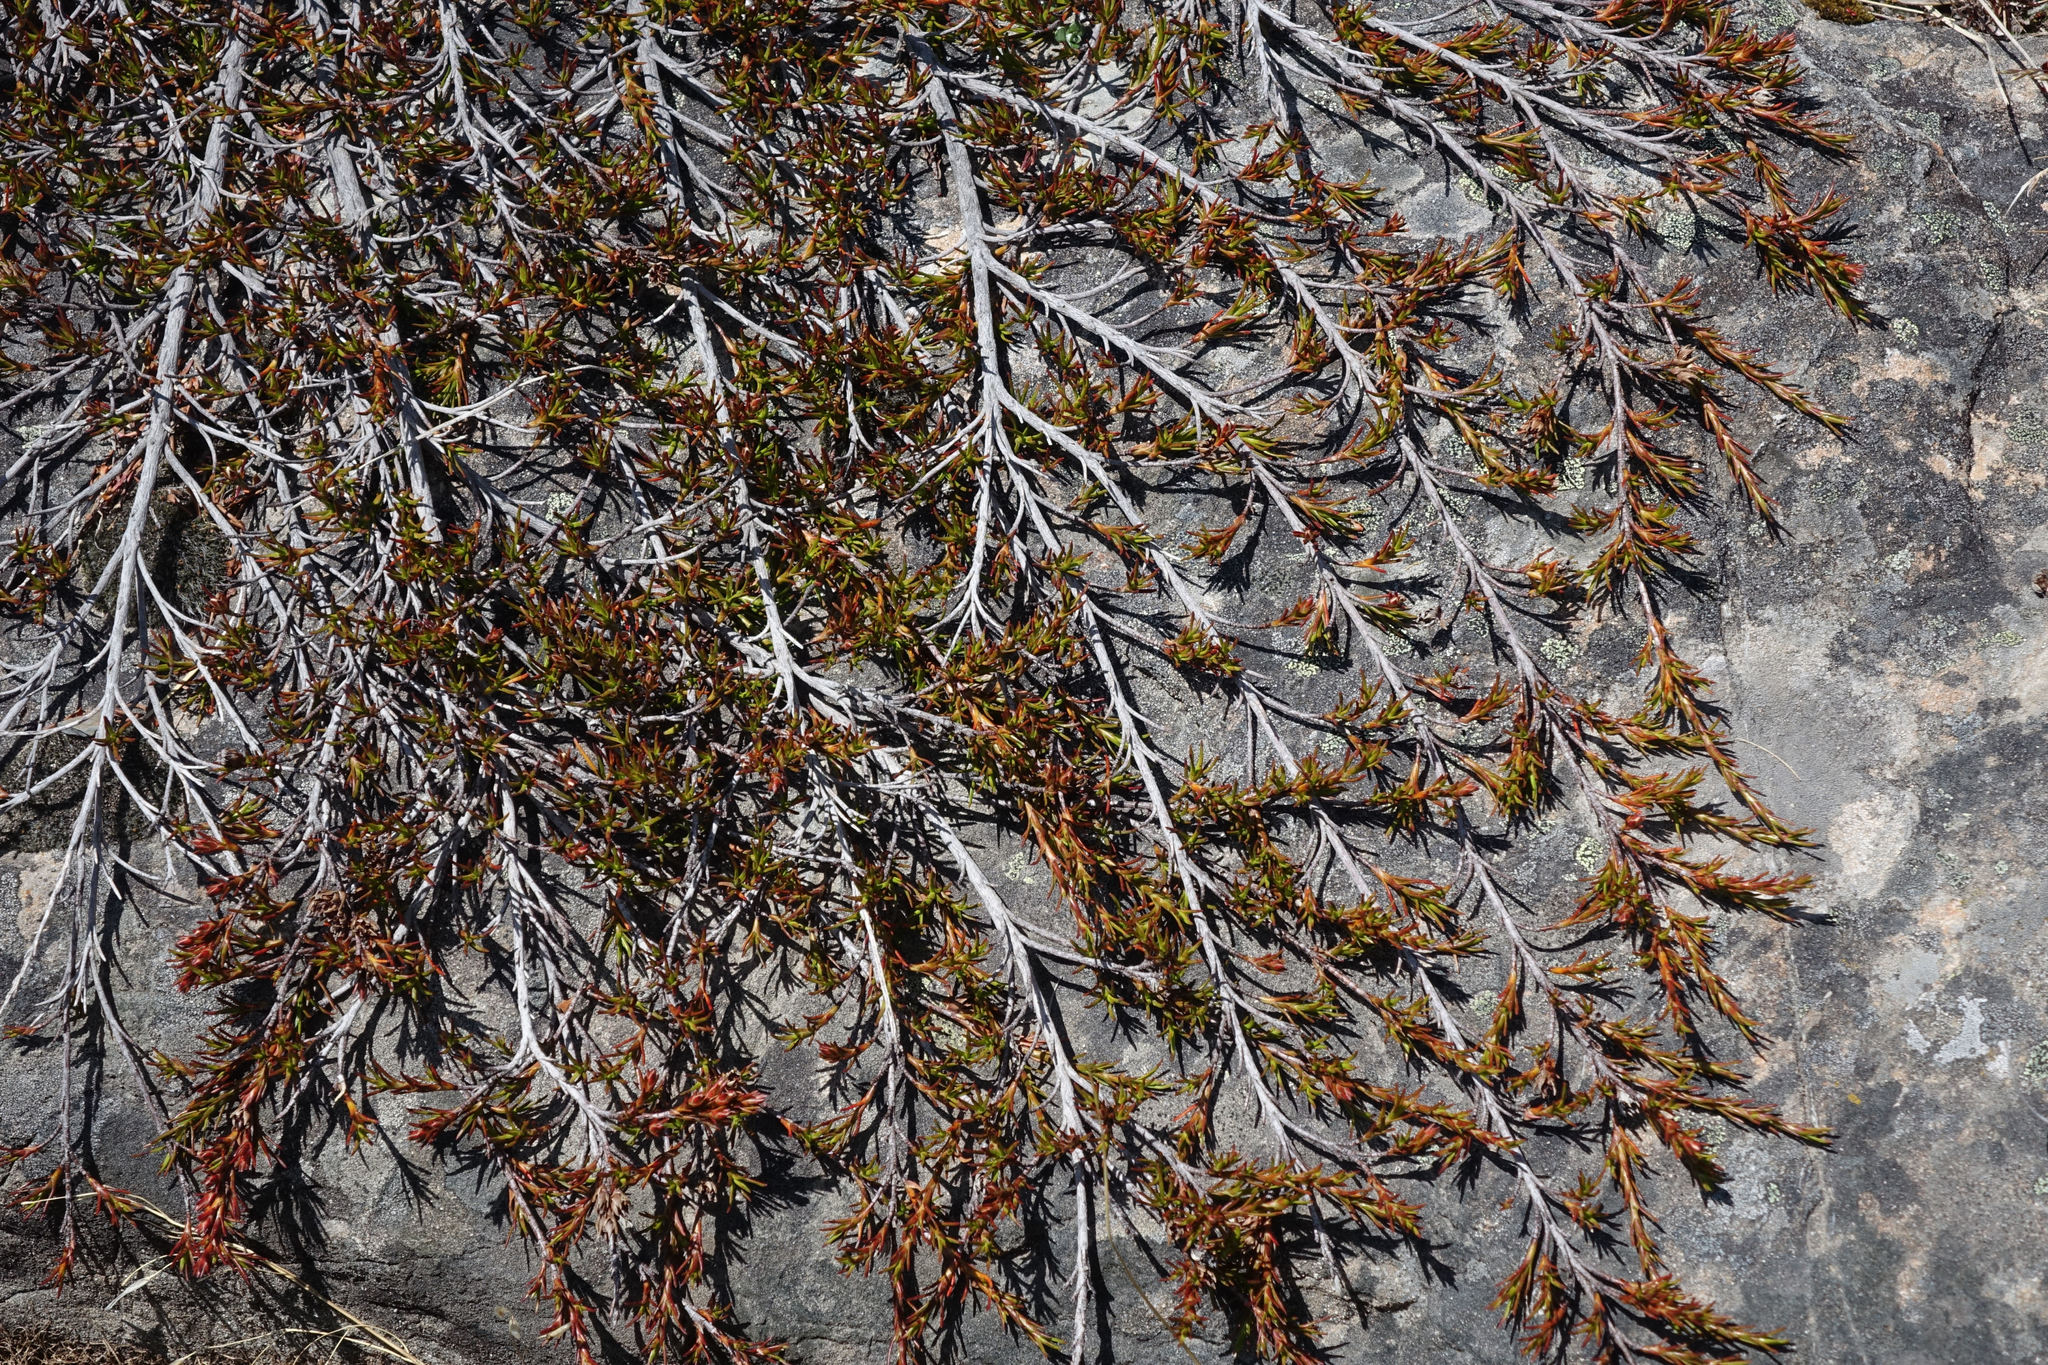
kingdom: Plantae
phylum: Tracheophyta
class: Magnoliopsida
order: Ericales
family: Ericaceae
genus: Dracophyllum
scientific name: Dracophyllum pronum
